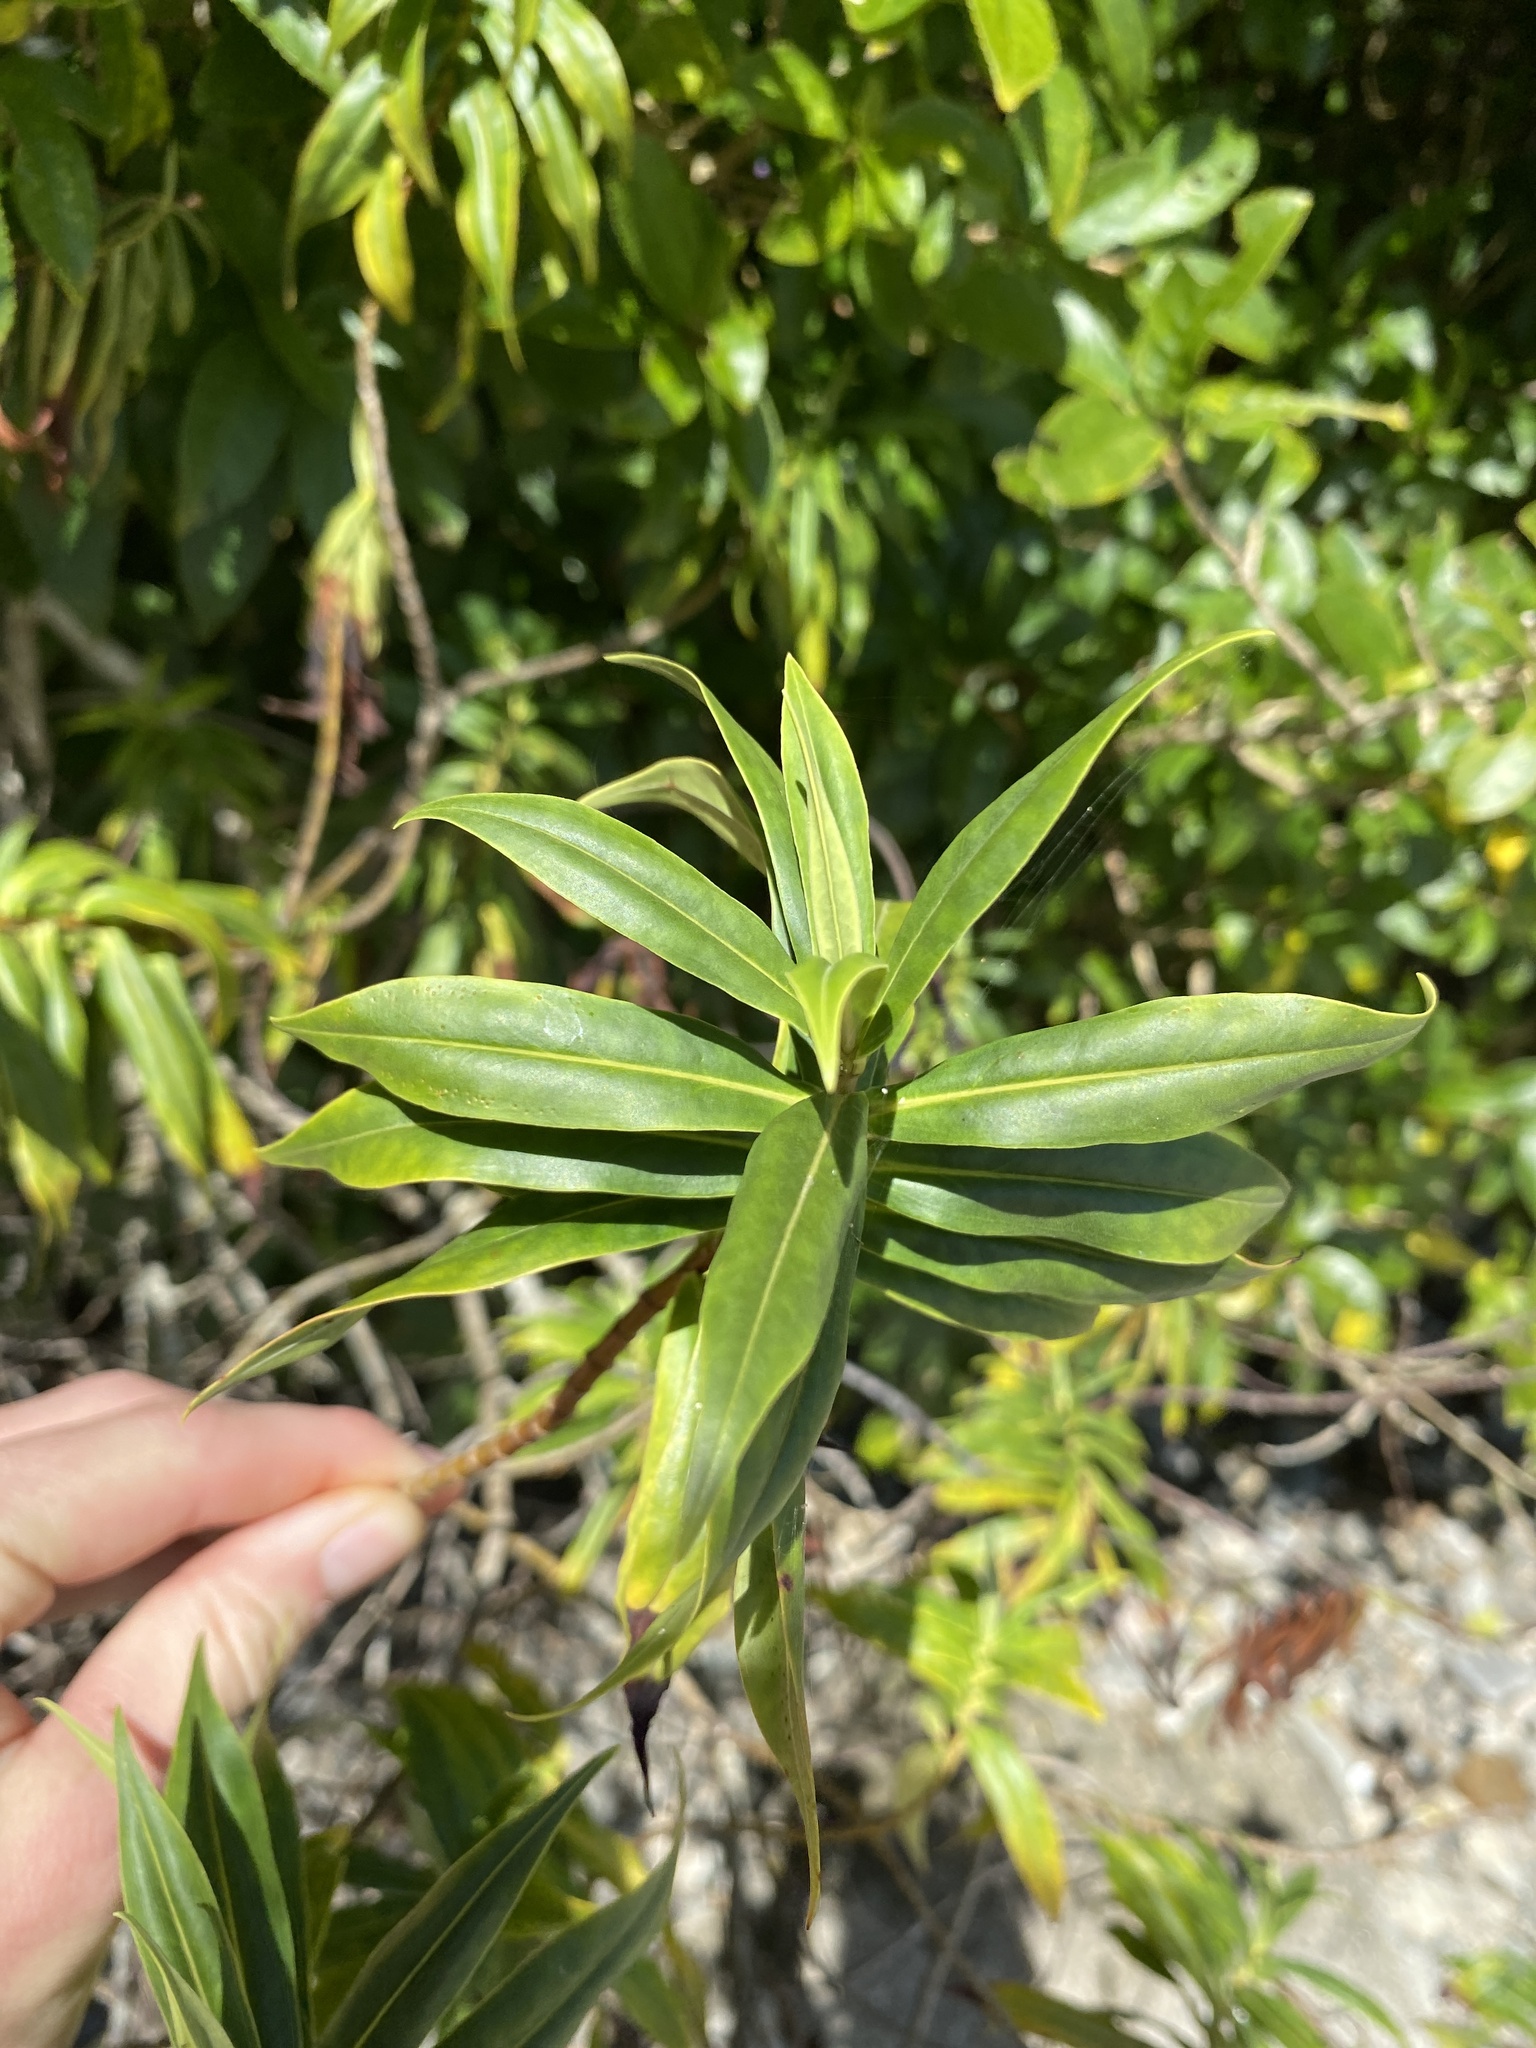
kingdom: Plantae
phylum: Tracheophyta
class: Magnoliopsida
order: Lamiales
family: Plantaginaceae
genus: Veronica
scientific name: Veronica salicifolia
